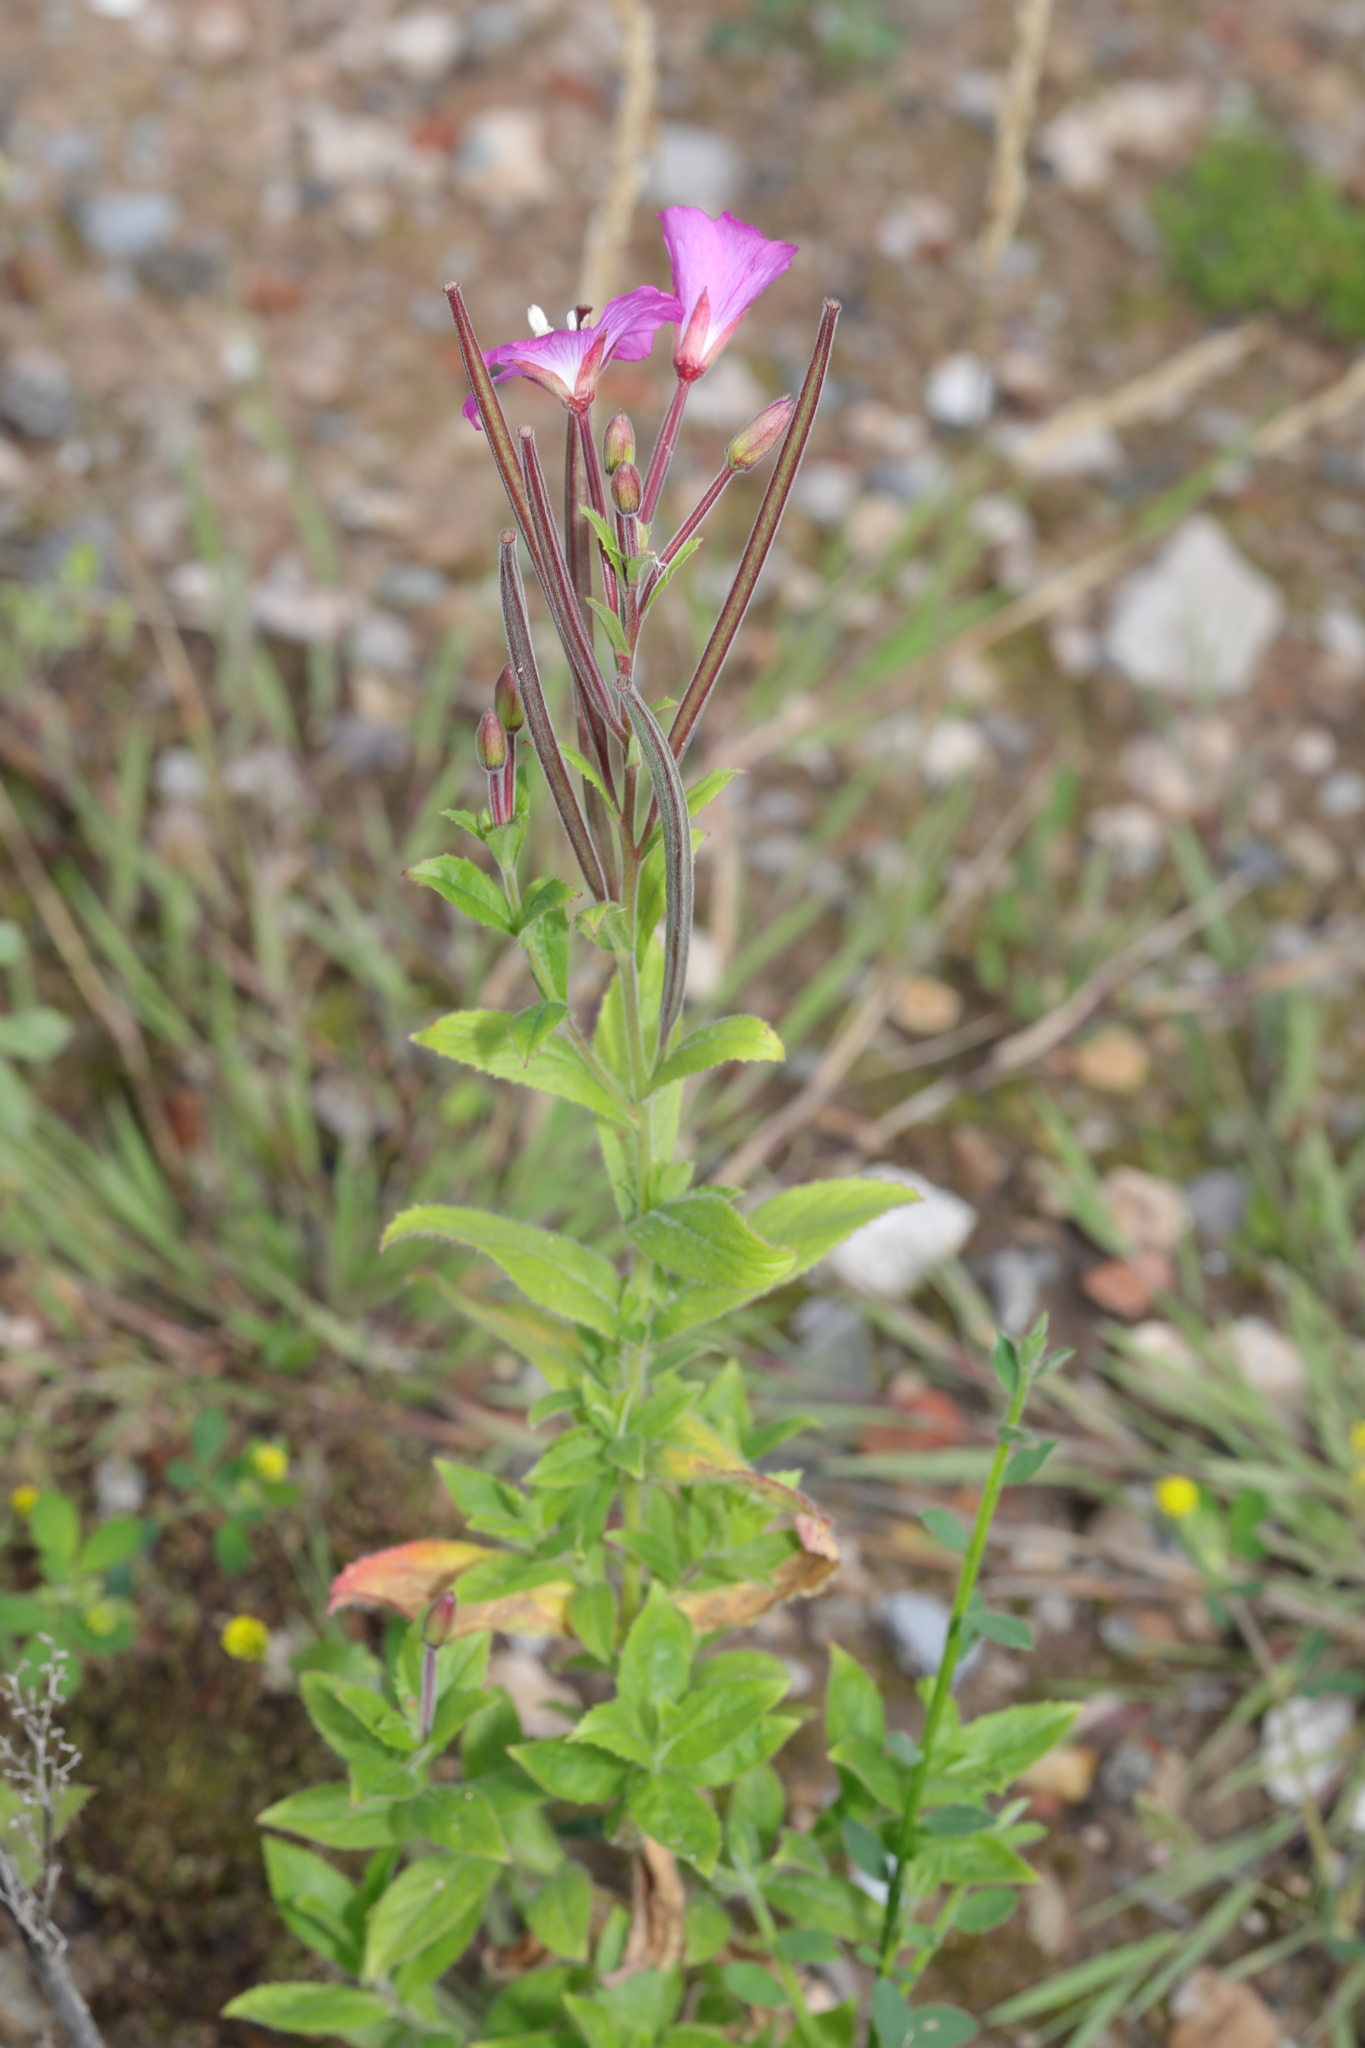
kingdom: Plantae
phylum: Tracheophyta
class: Magnoliopsida
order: Myrtales
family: Onagraceae
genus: Epilobium
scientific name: Epilobium hirsutum
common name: Great willowherb
